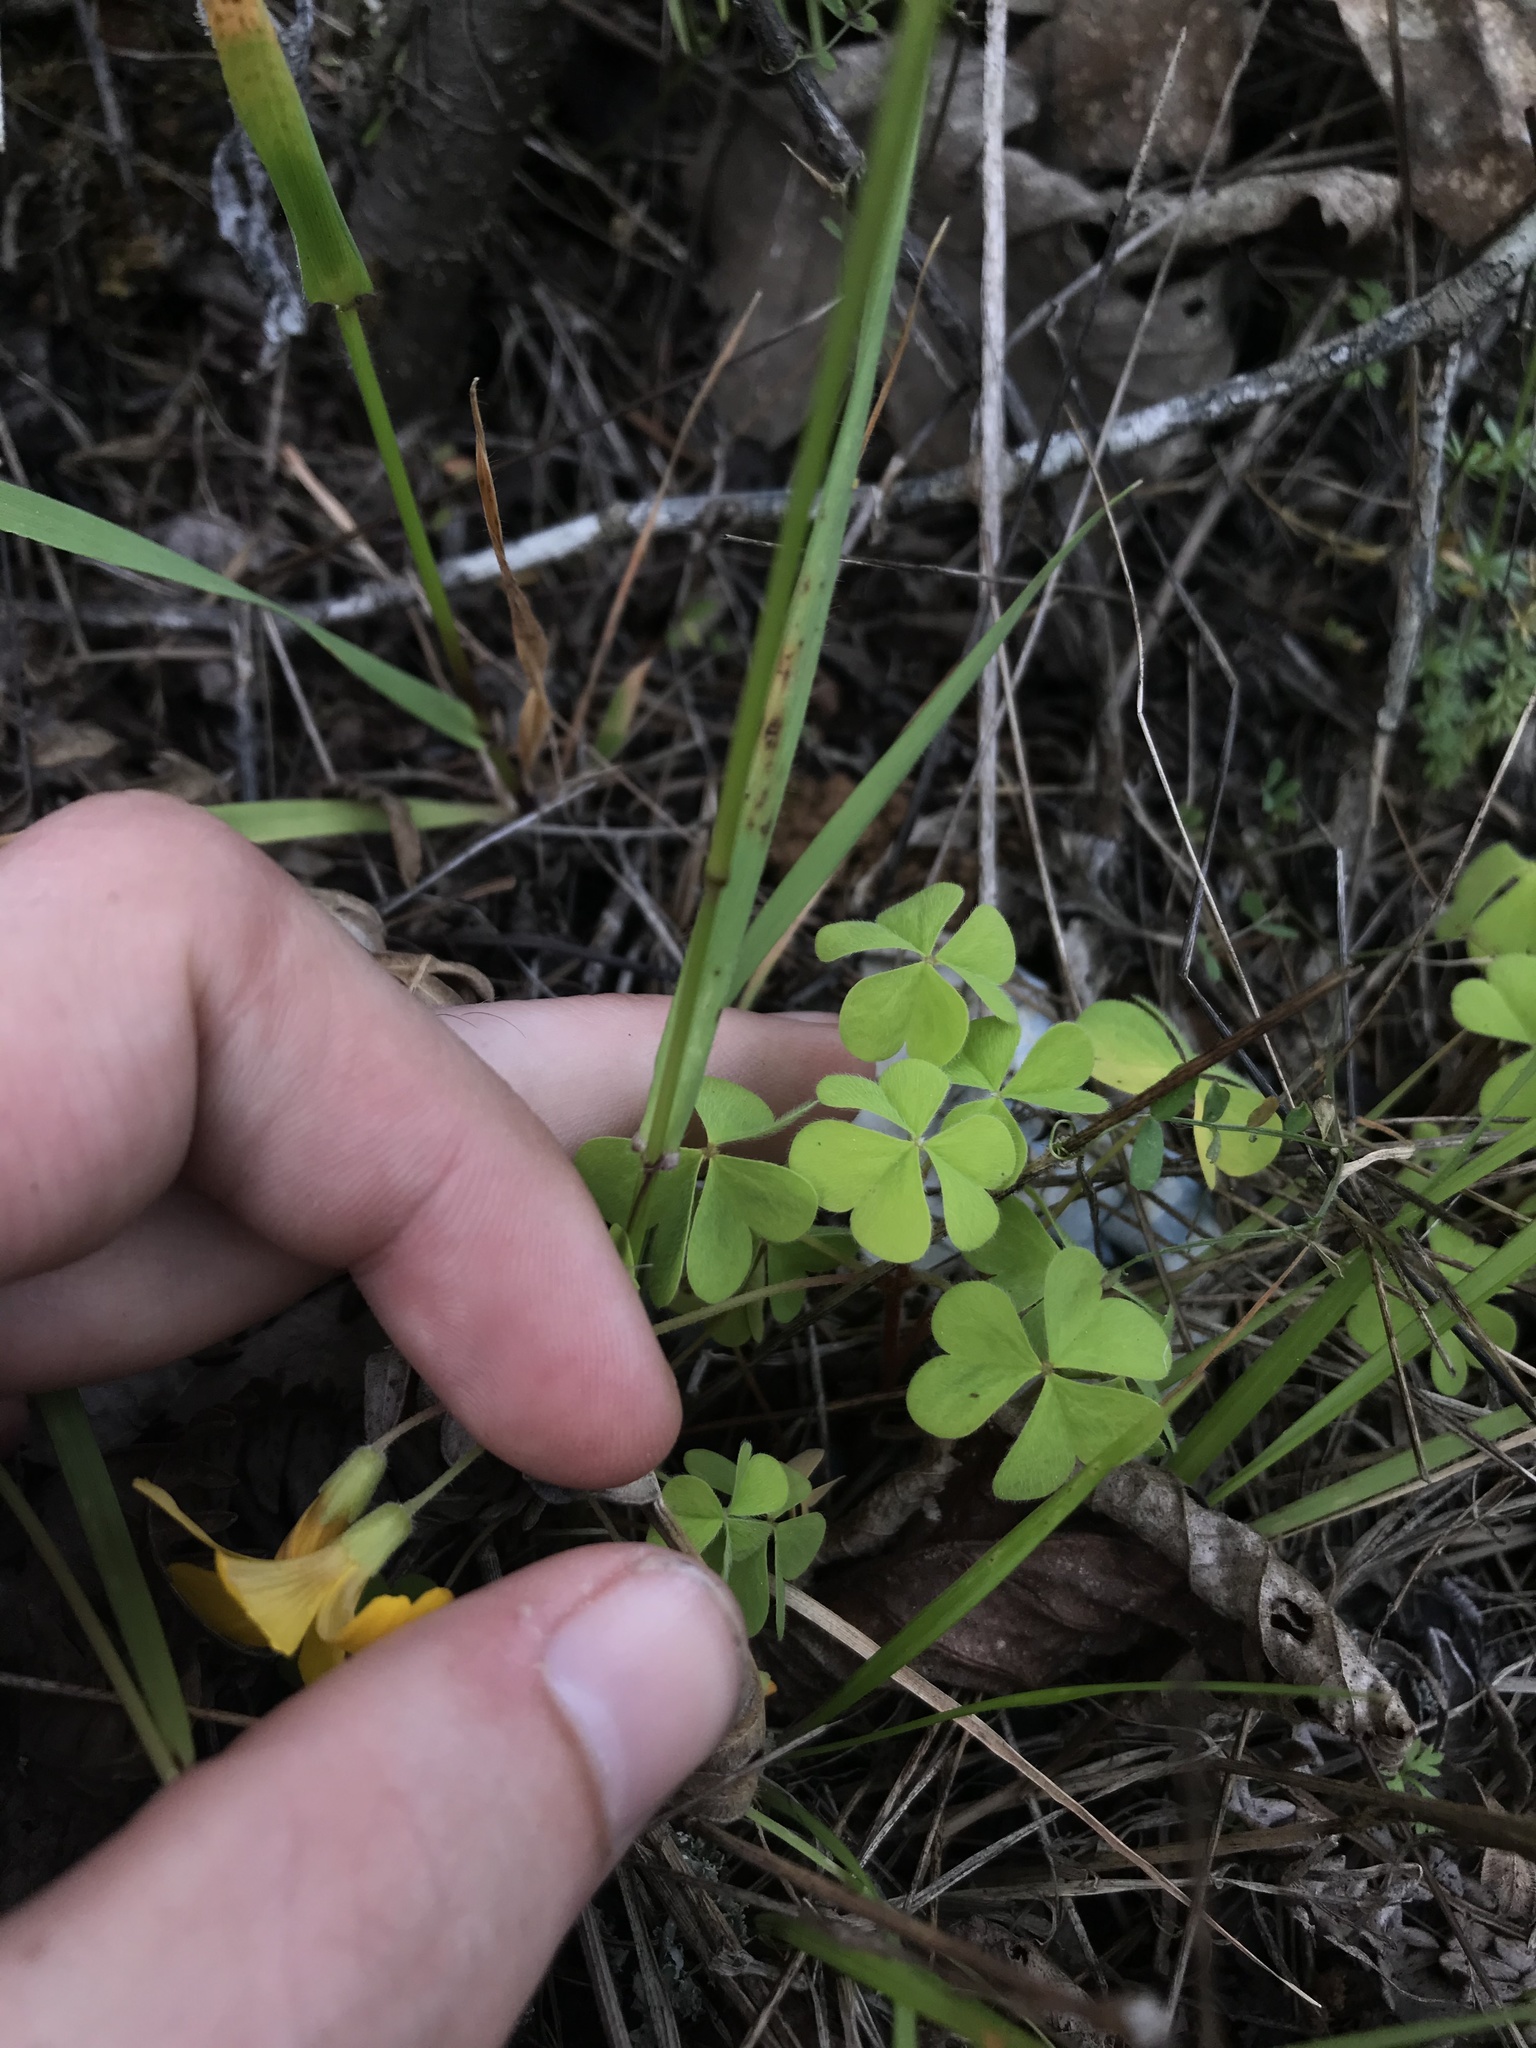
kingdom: Plantae
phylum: Tracheophyta
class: Magnoliopsida
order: Oxalidales
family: Oxalidaceae
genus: Oxalis
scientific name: Oxalis suksdorfii
